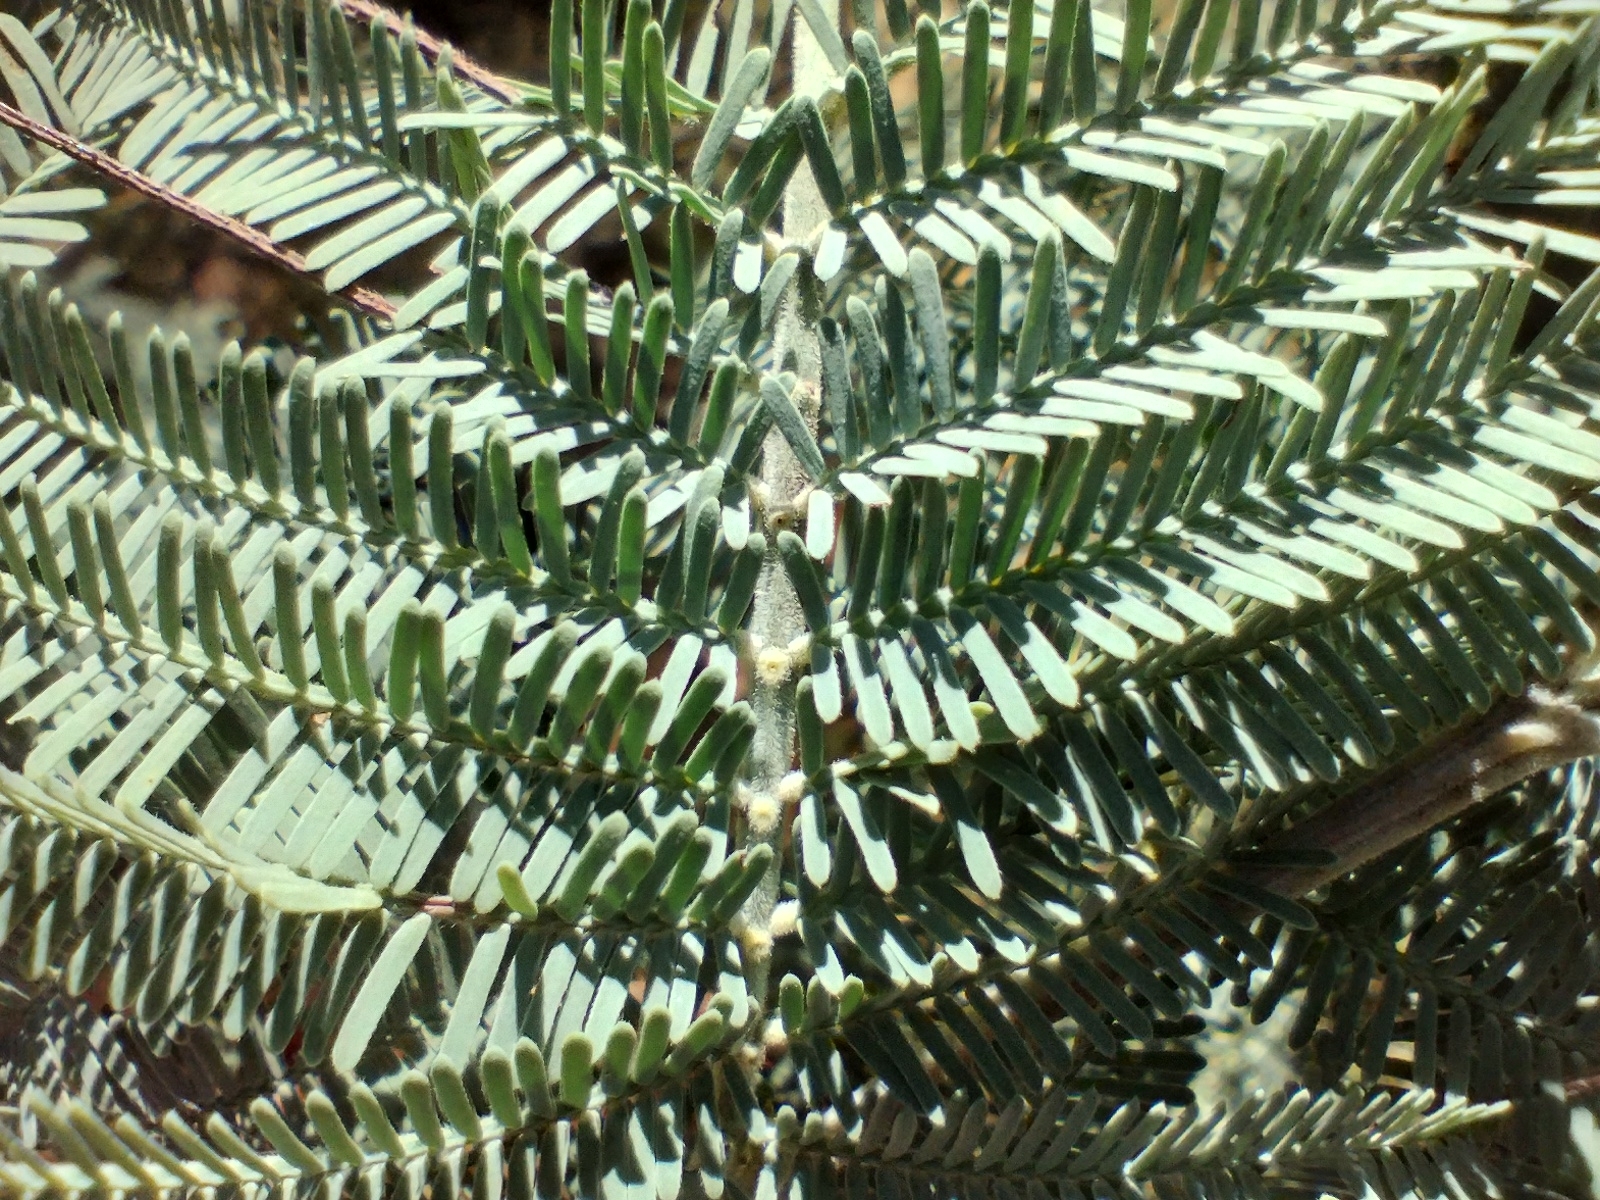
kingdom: Plantae
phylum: Tracheophyta
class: Magnoliopsida
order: Fabales
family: Fabaceae
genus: Acacia
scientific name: Acacia dealbata
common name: Silver wattle
